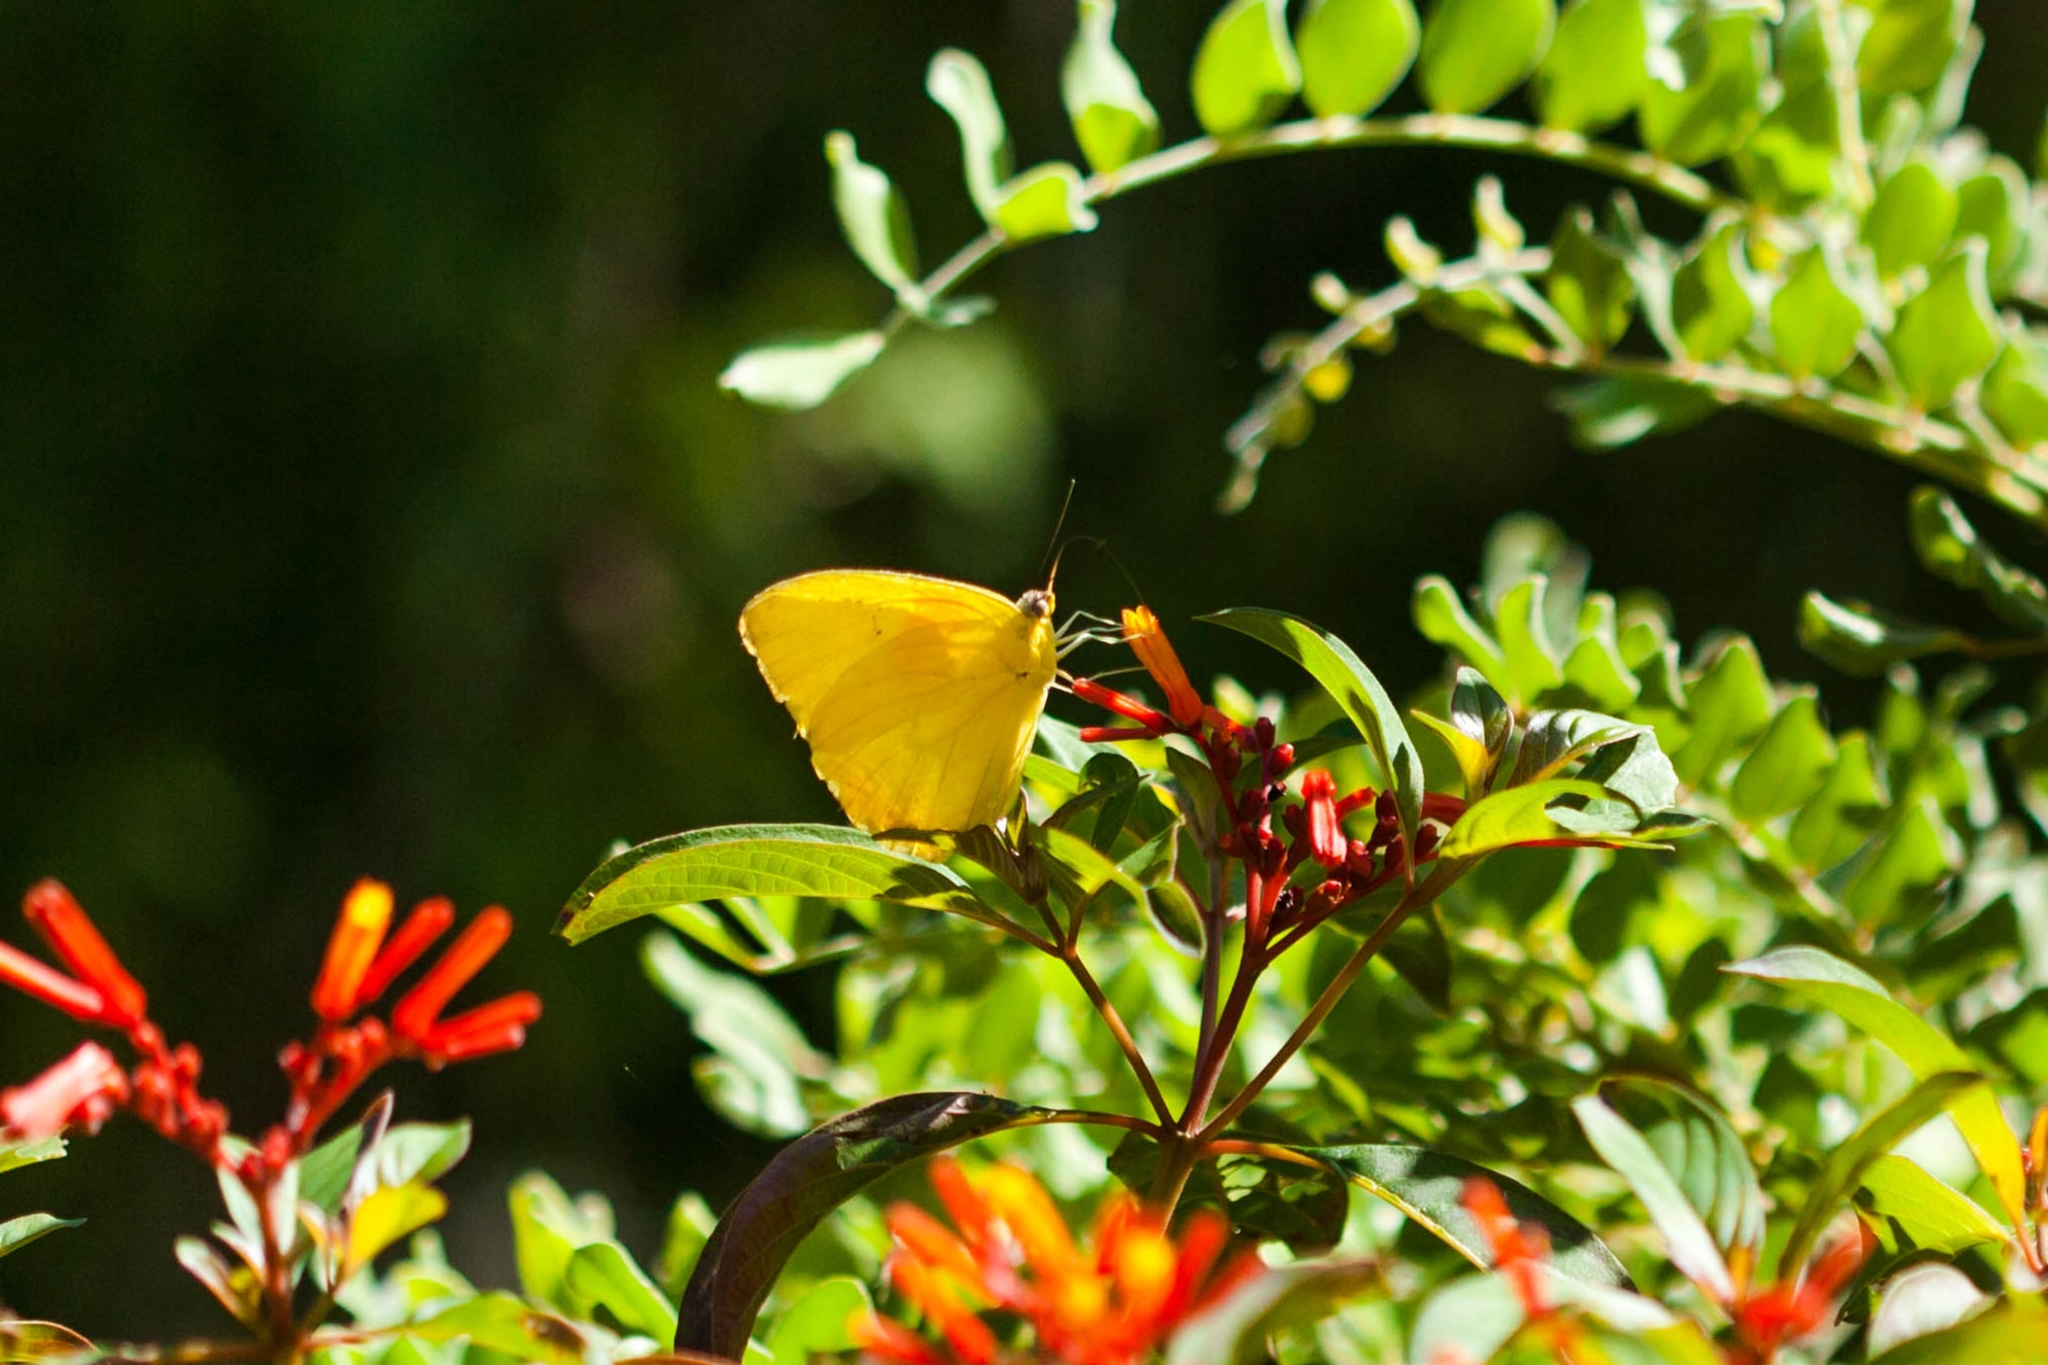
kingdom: Animalia
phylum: Arthropoda
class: Insecta
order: Lepidoptera
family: Pieridae
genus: Phoebis
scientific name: Phoebis philea
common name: Orange-barred giant sulphur
